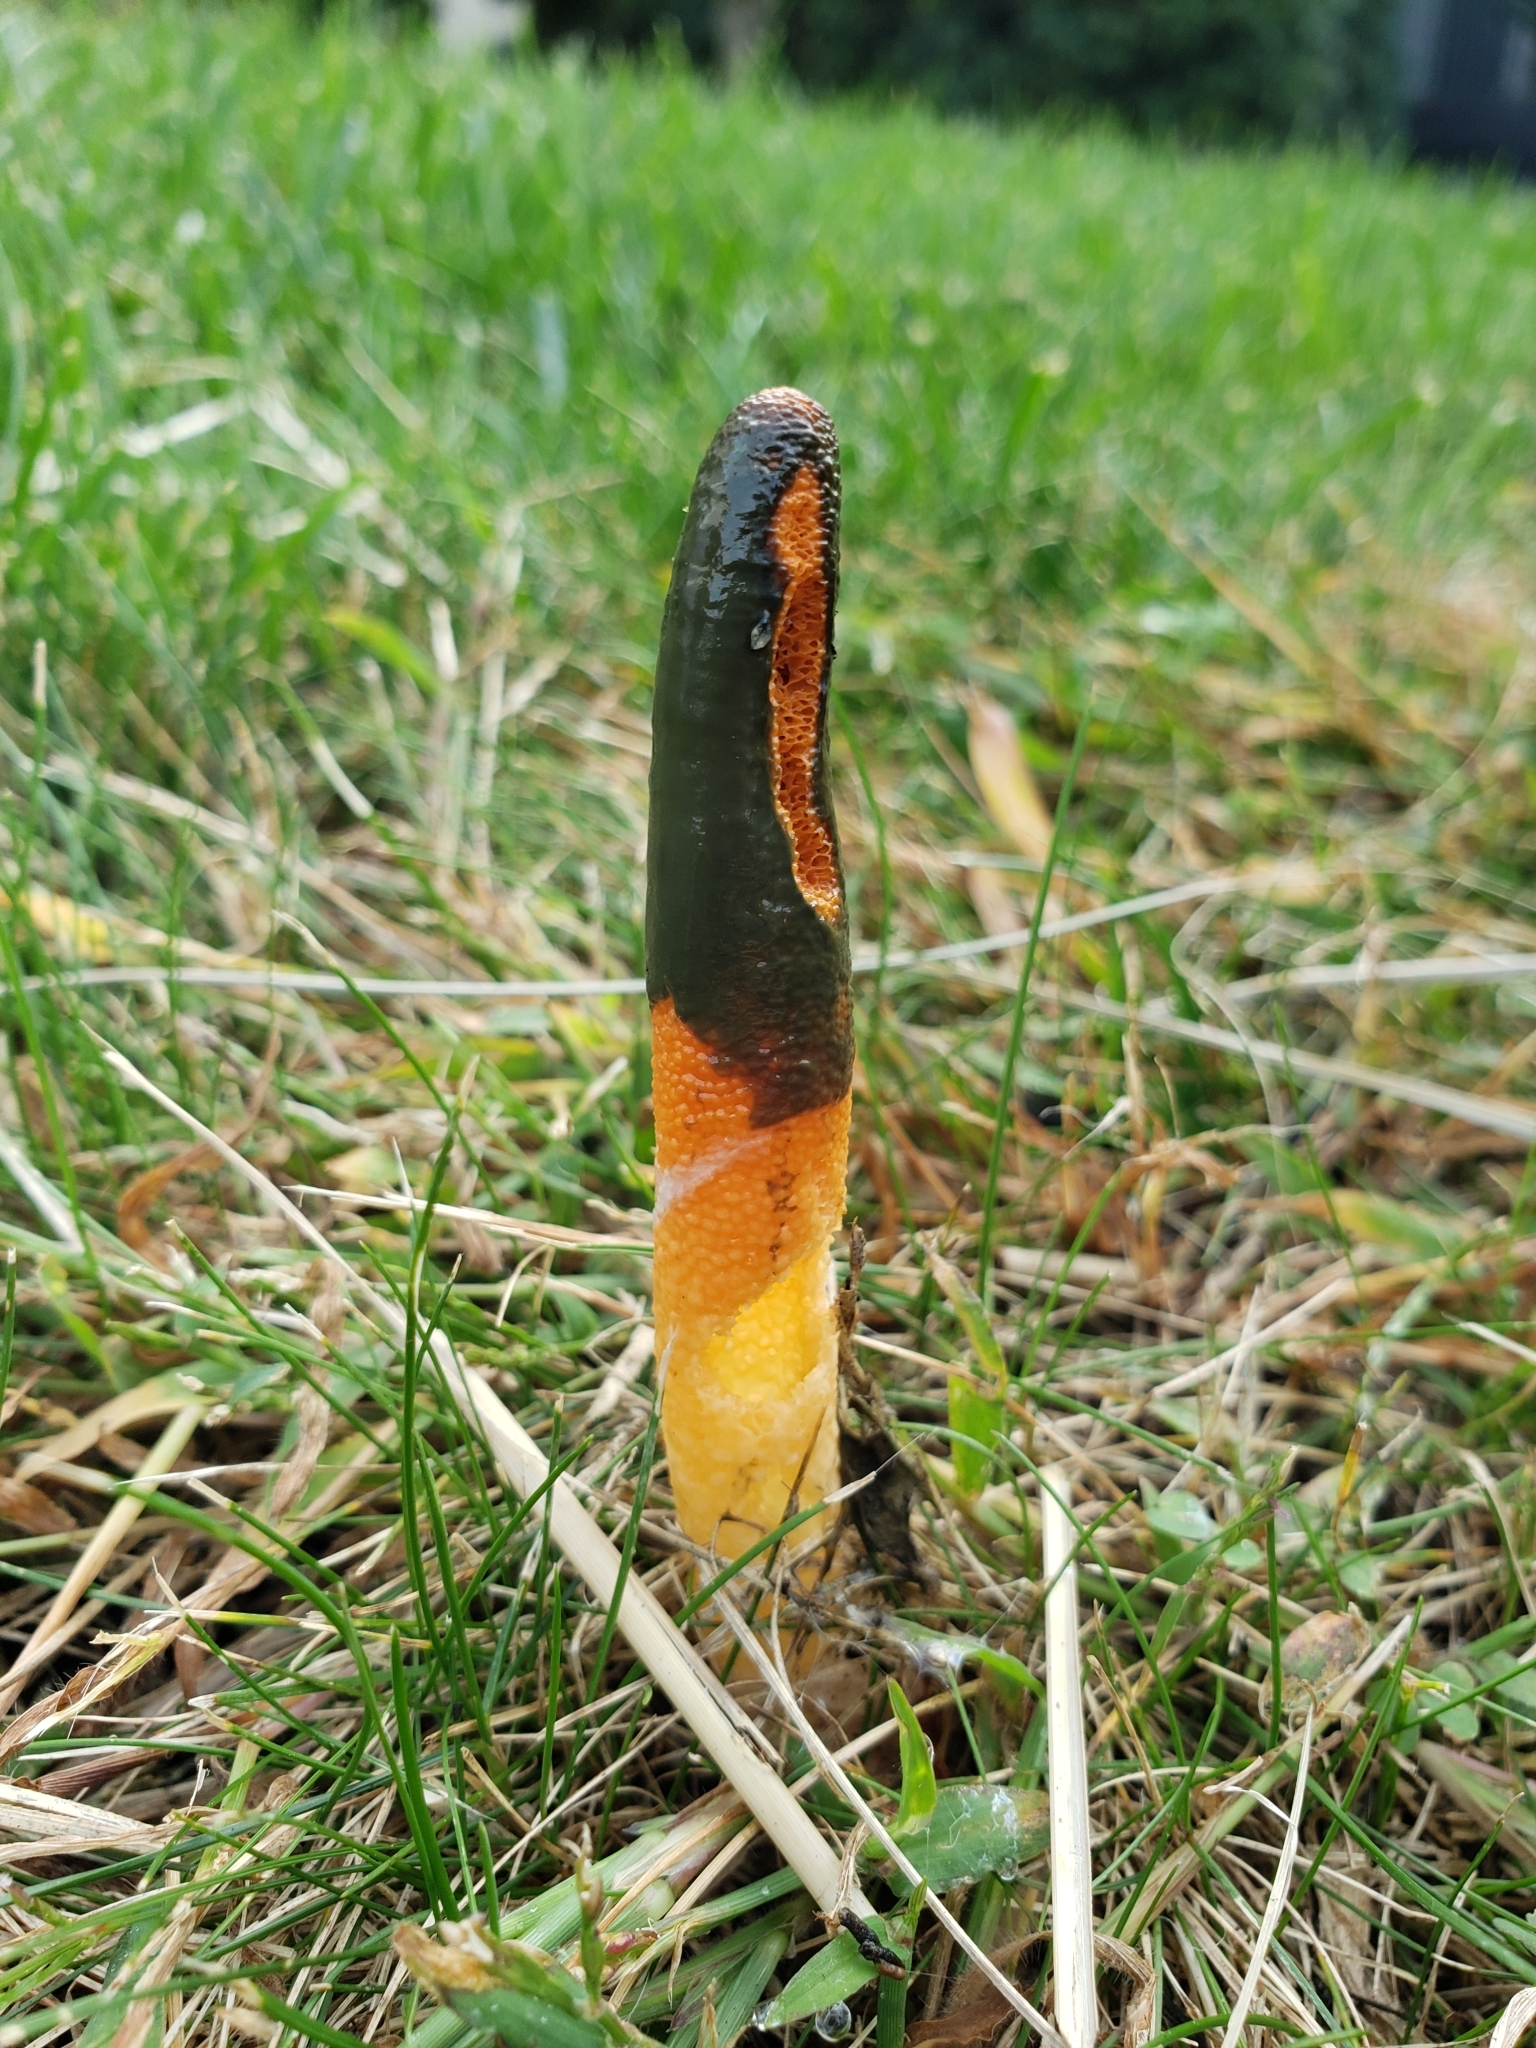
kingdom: Fungi
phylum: Basidiomycota
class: Agaricomycetes
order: Phallales
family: Phallaceae
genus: Mutinus
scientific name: Mutinus elegans
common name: Devil's dipstick
